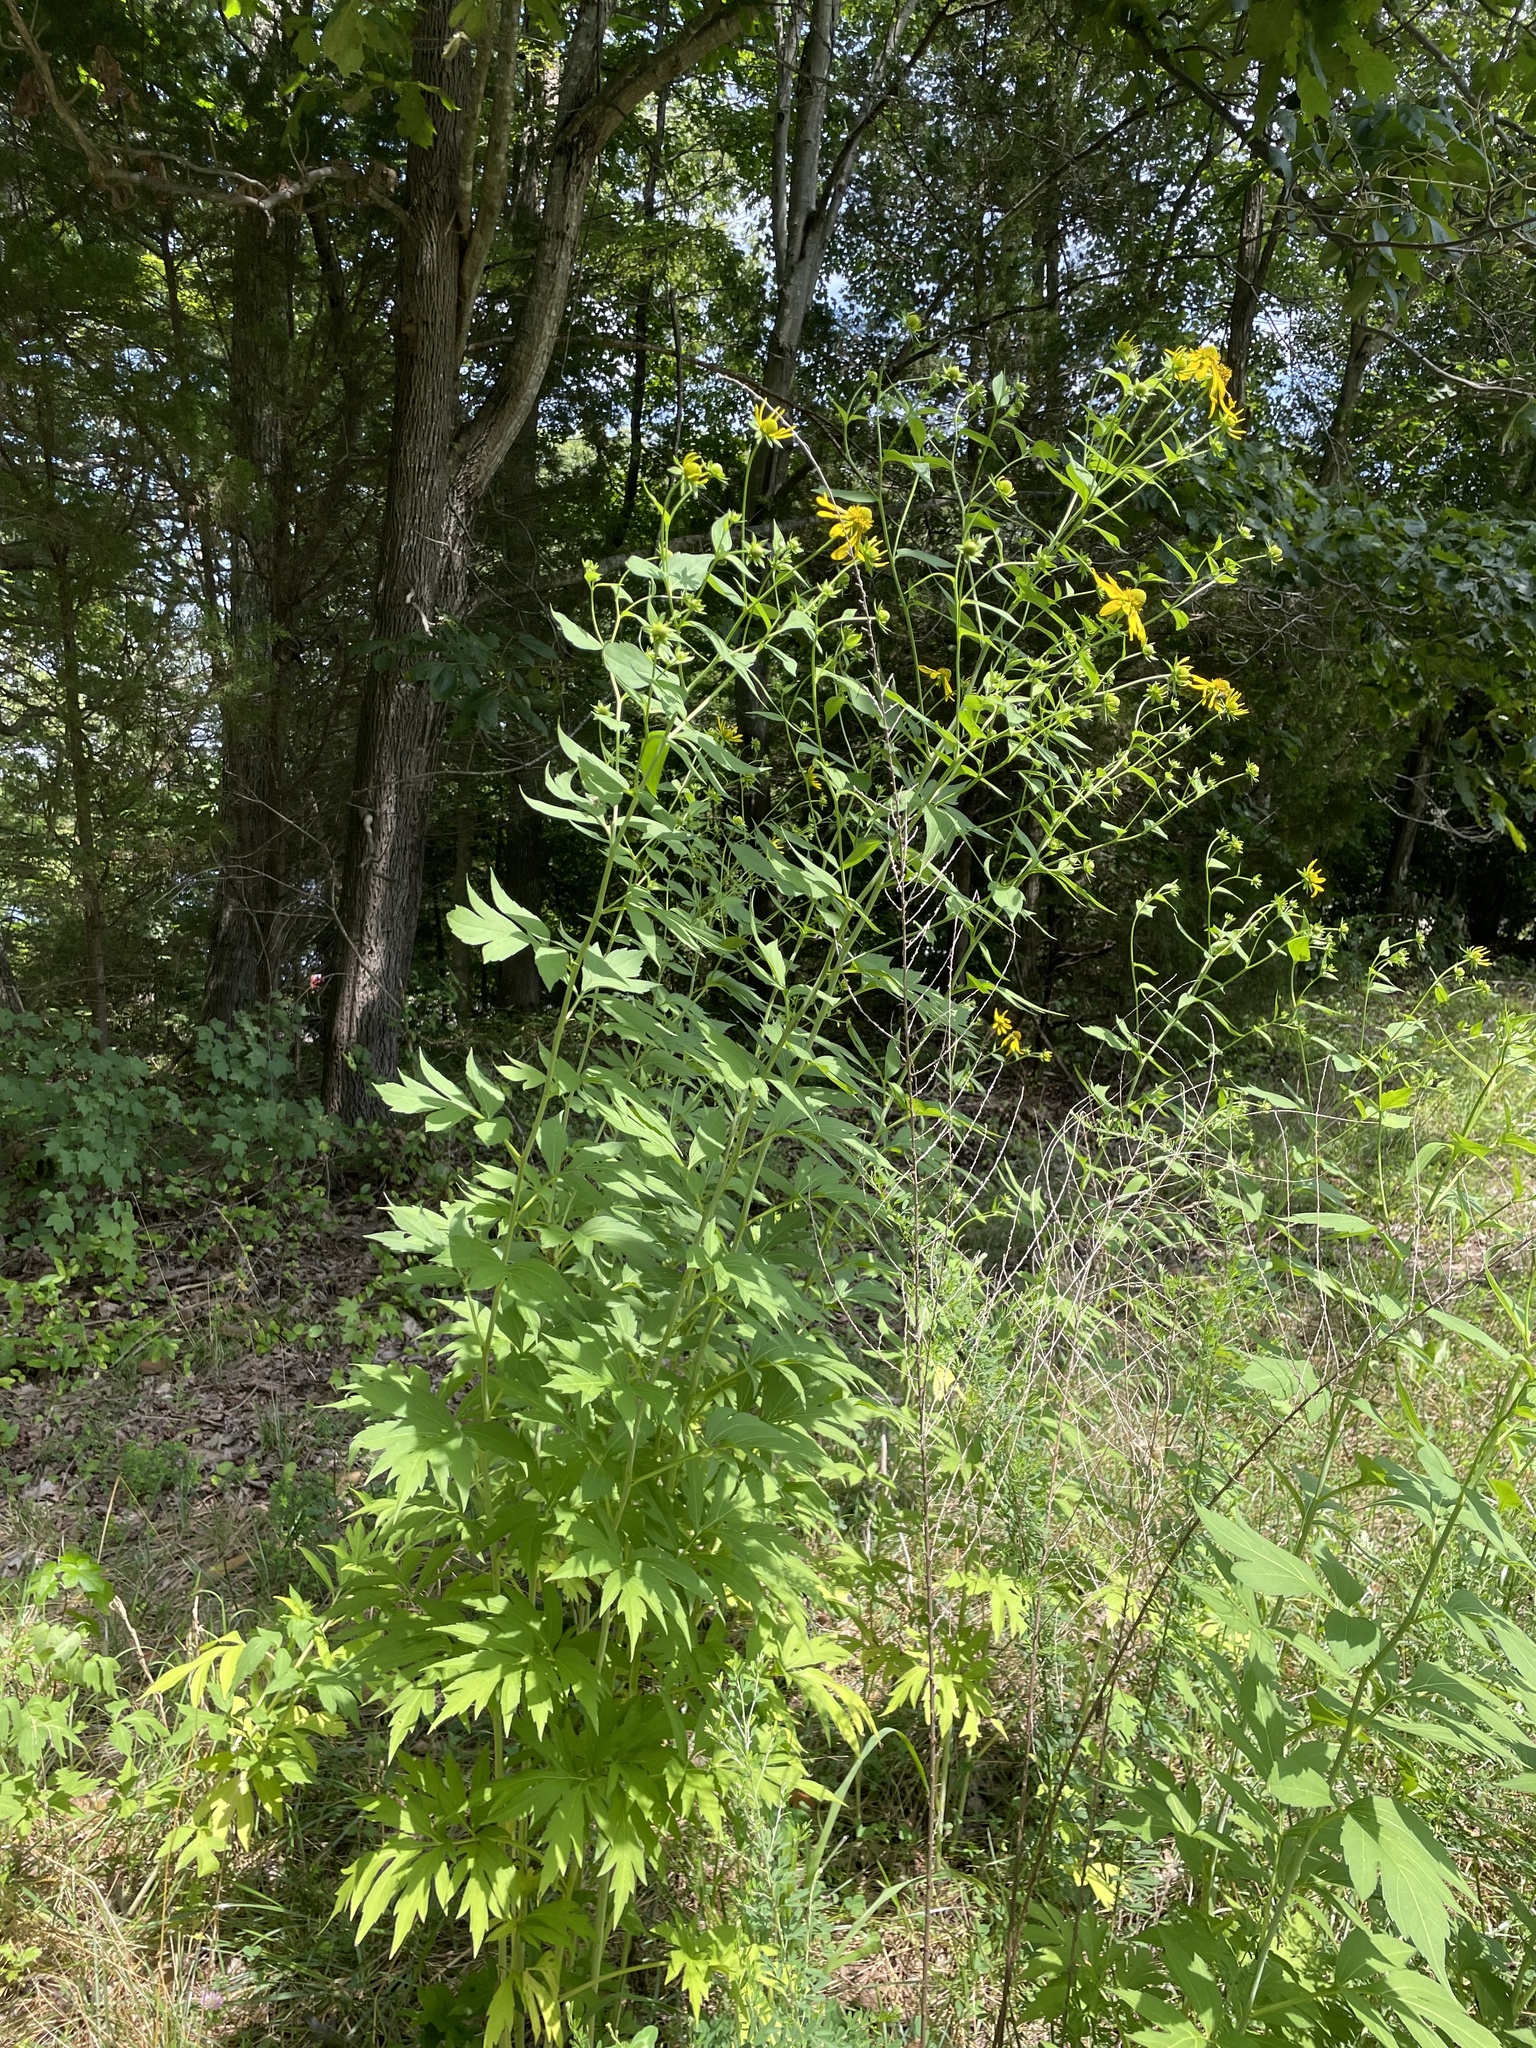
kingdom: Plantae
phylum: Tracheophyta
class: Magnoliopsida
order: Asterales
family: Asteraceae
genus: Rudbeckia
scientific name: Rudbeckia laciniata
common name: Coneflower
